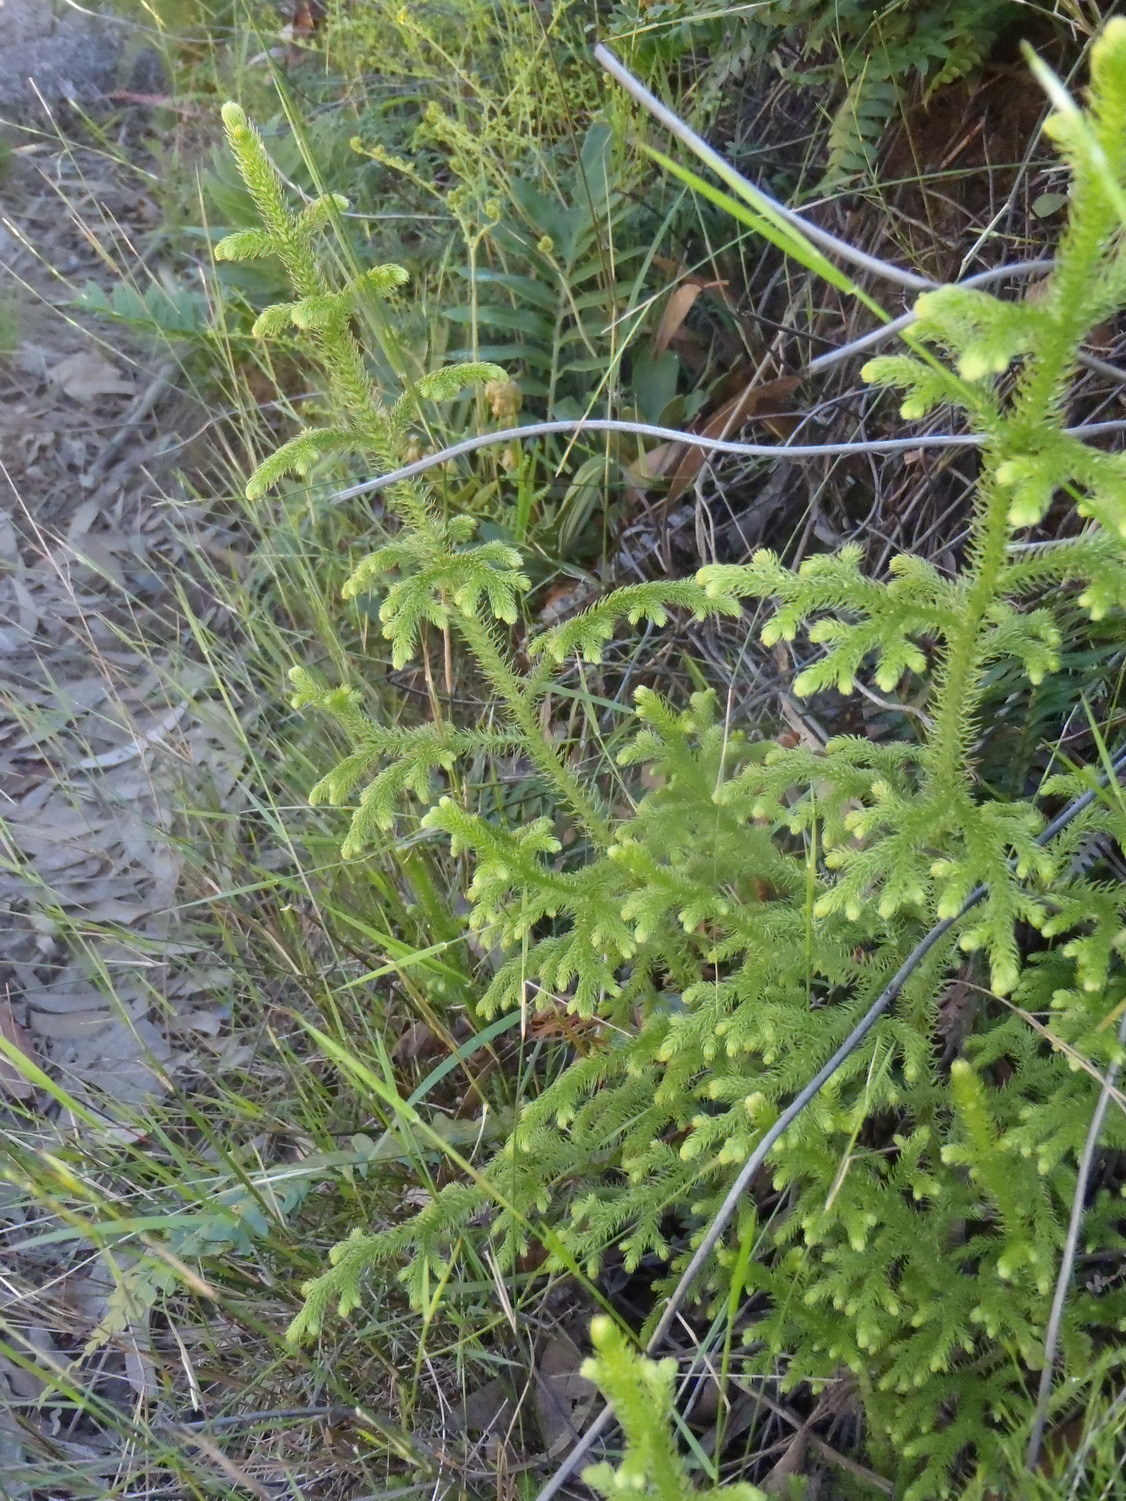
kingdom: Plantae
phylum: Tracheophyta
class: Lycopodiopsida
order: Lycopodiales
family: Lycopodiaceae
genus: Palhinhaea
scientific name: Palhinhaea cernua
